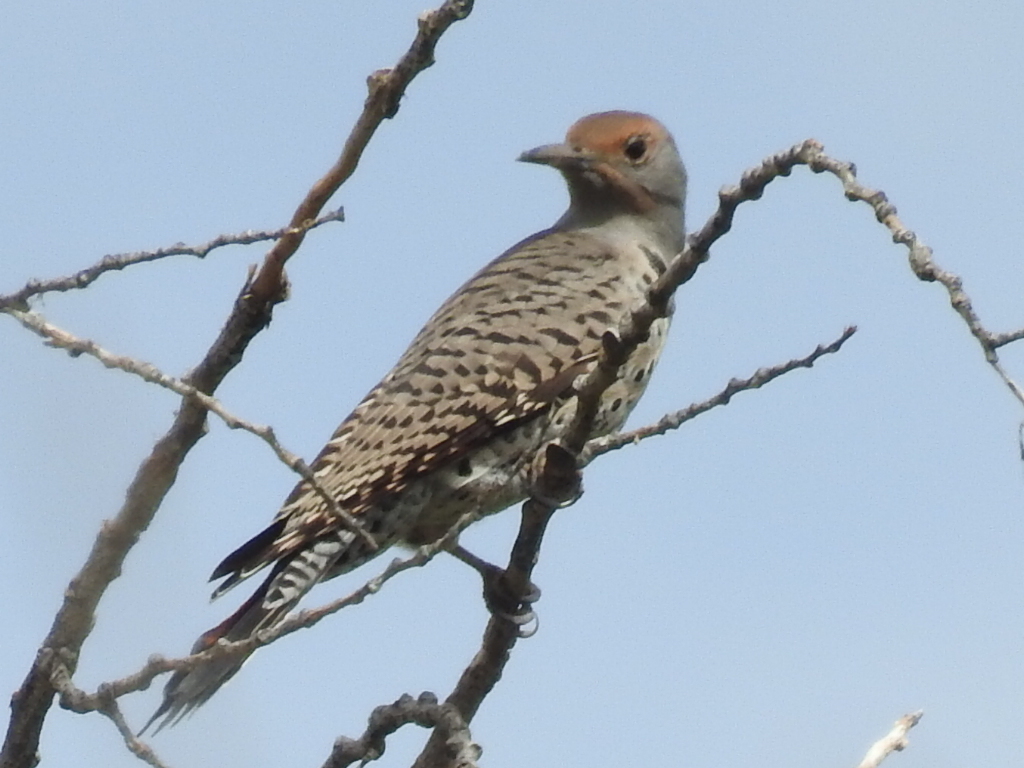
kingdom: Animalia
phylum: Chordata
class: Aves
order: Piciformes
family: Picidae
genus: Colaptes
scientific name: Colaptes auratus
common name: Northern flicker
